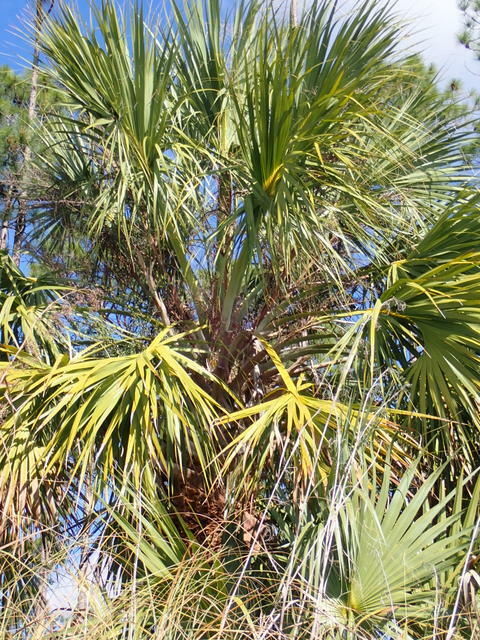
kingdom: Plantae
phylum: Tracheophyta
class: Liliopsida
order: Arecales
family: Arecaceae
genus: Sabal
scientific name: Sabal palmetto
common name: Blue palmetto
